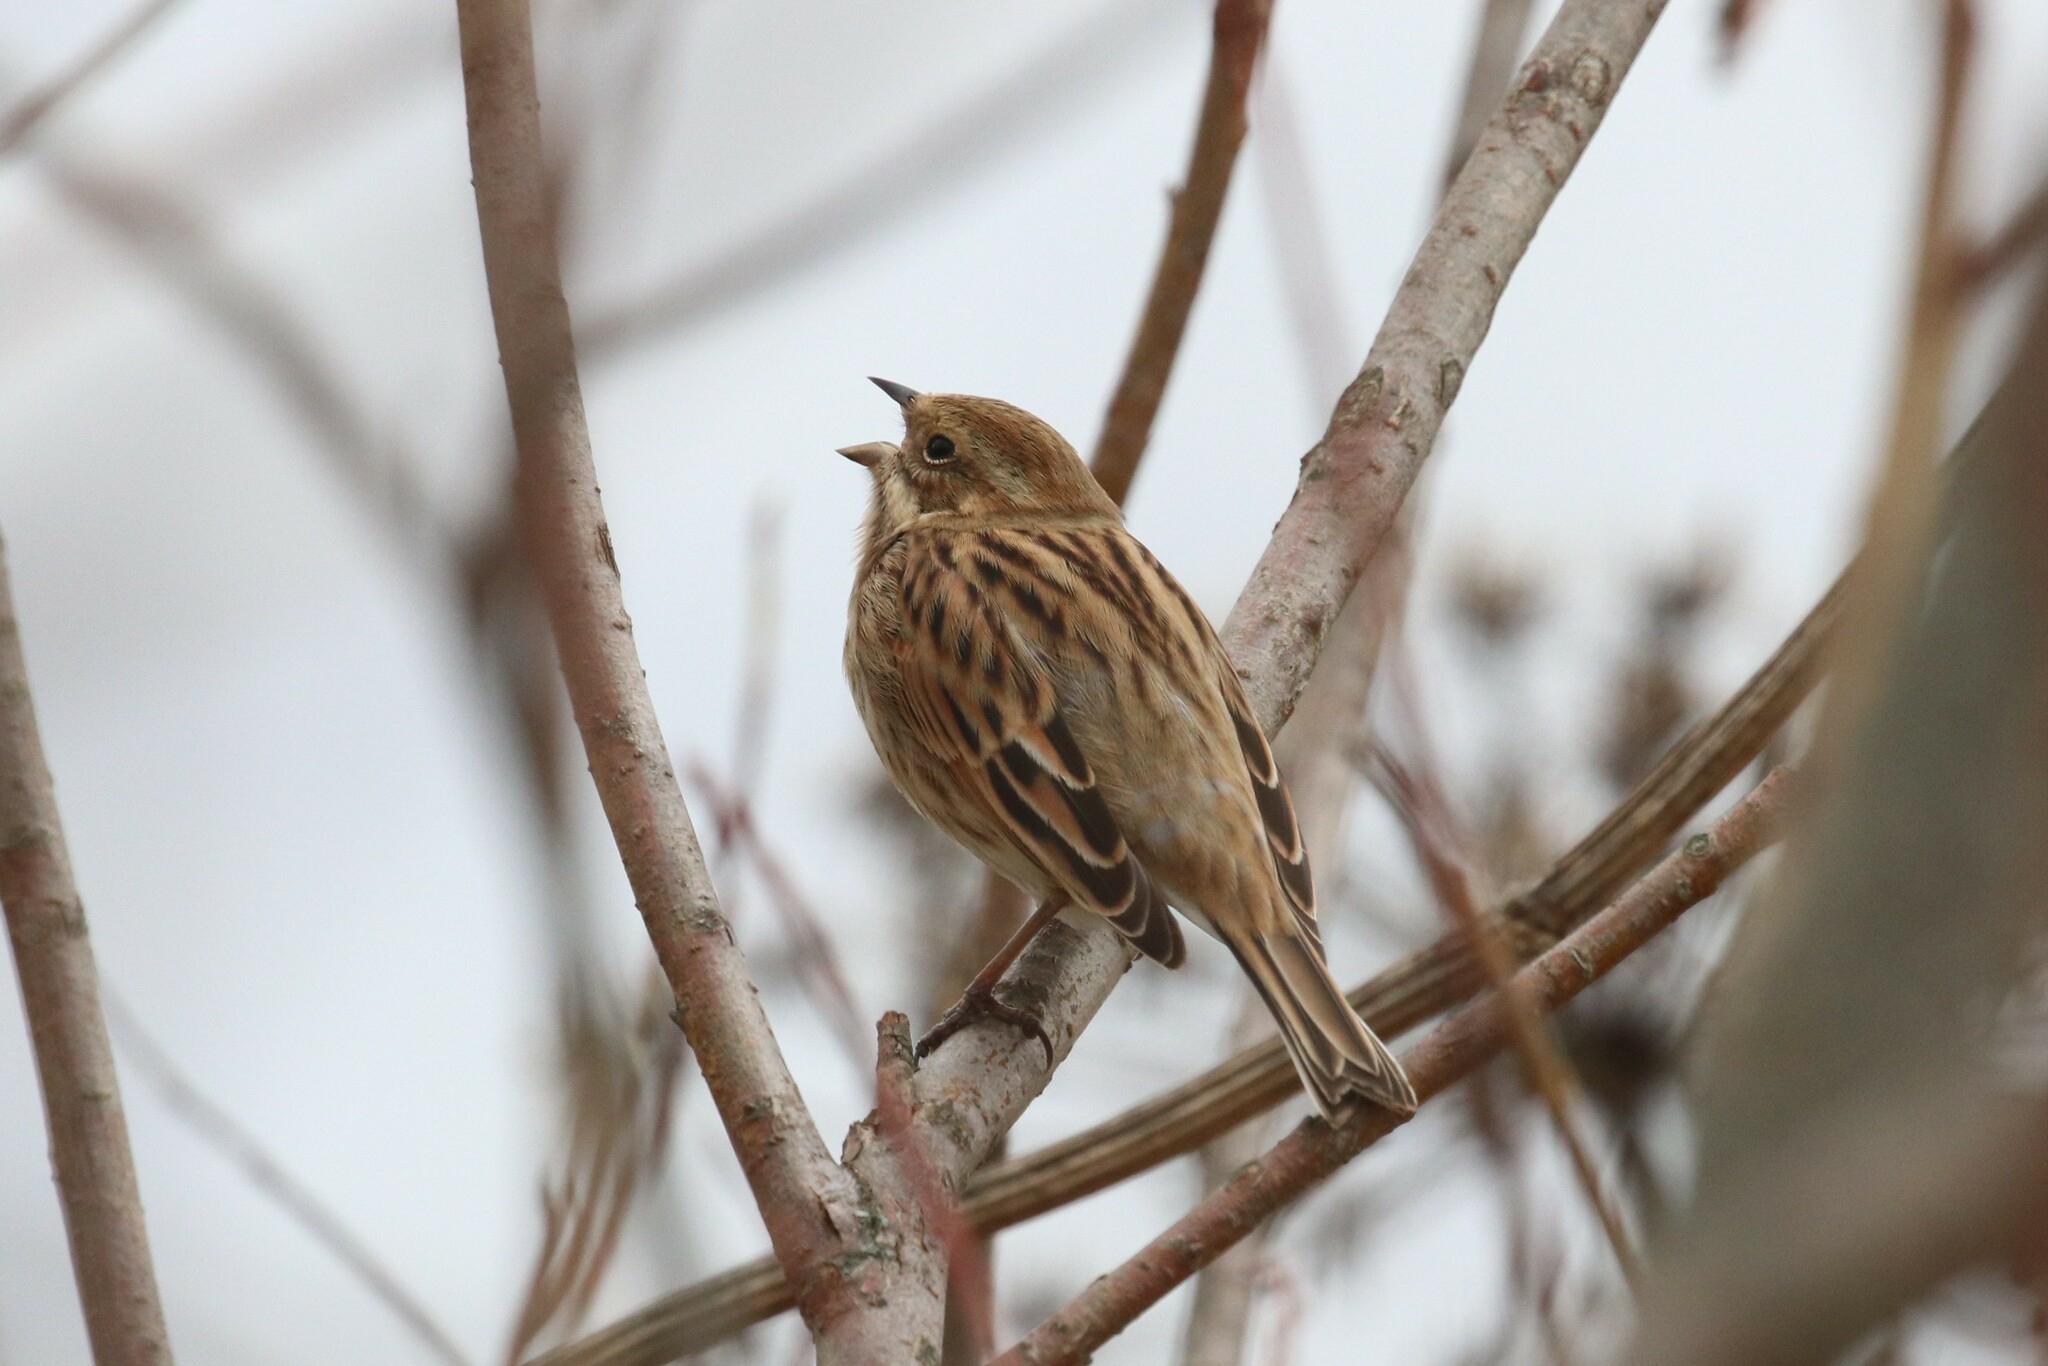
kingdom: Animalia
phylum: Chordata
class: Aves
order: Passeriformes
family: Emberizidae
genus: Emberiza
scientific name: Emberiza schoeniclus
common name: Reed bunting
